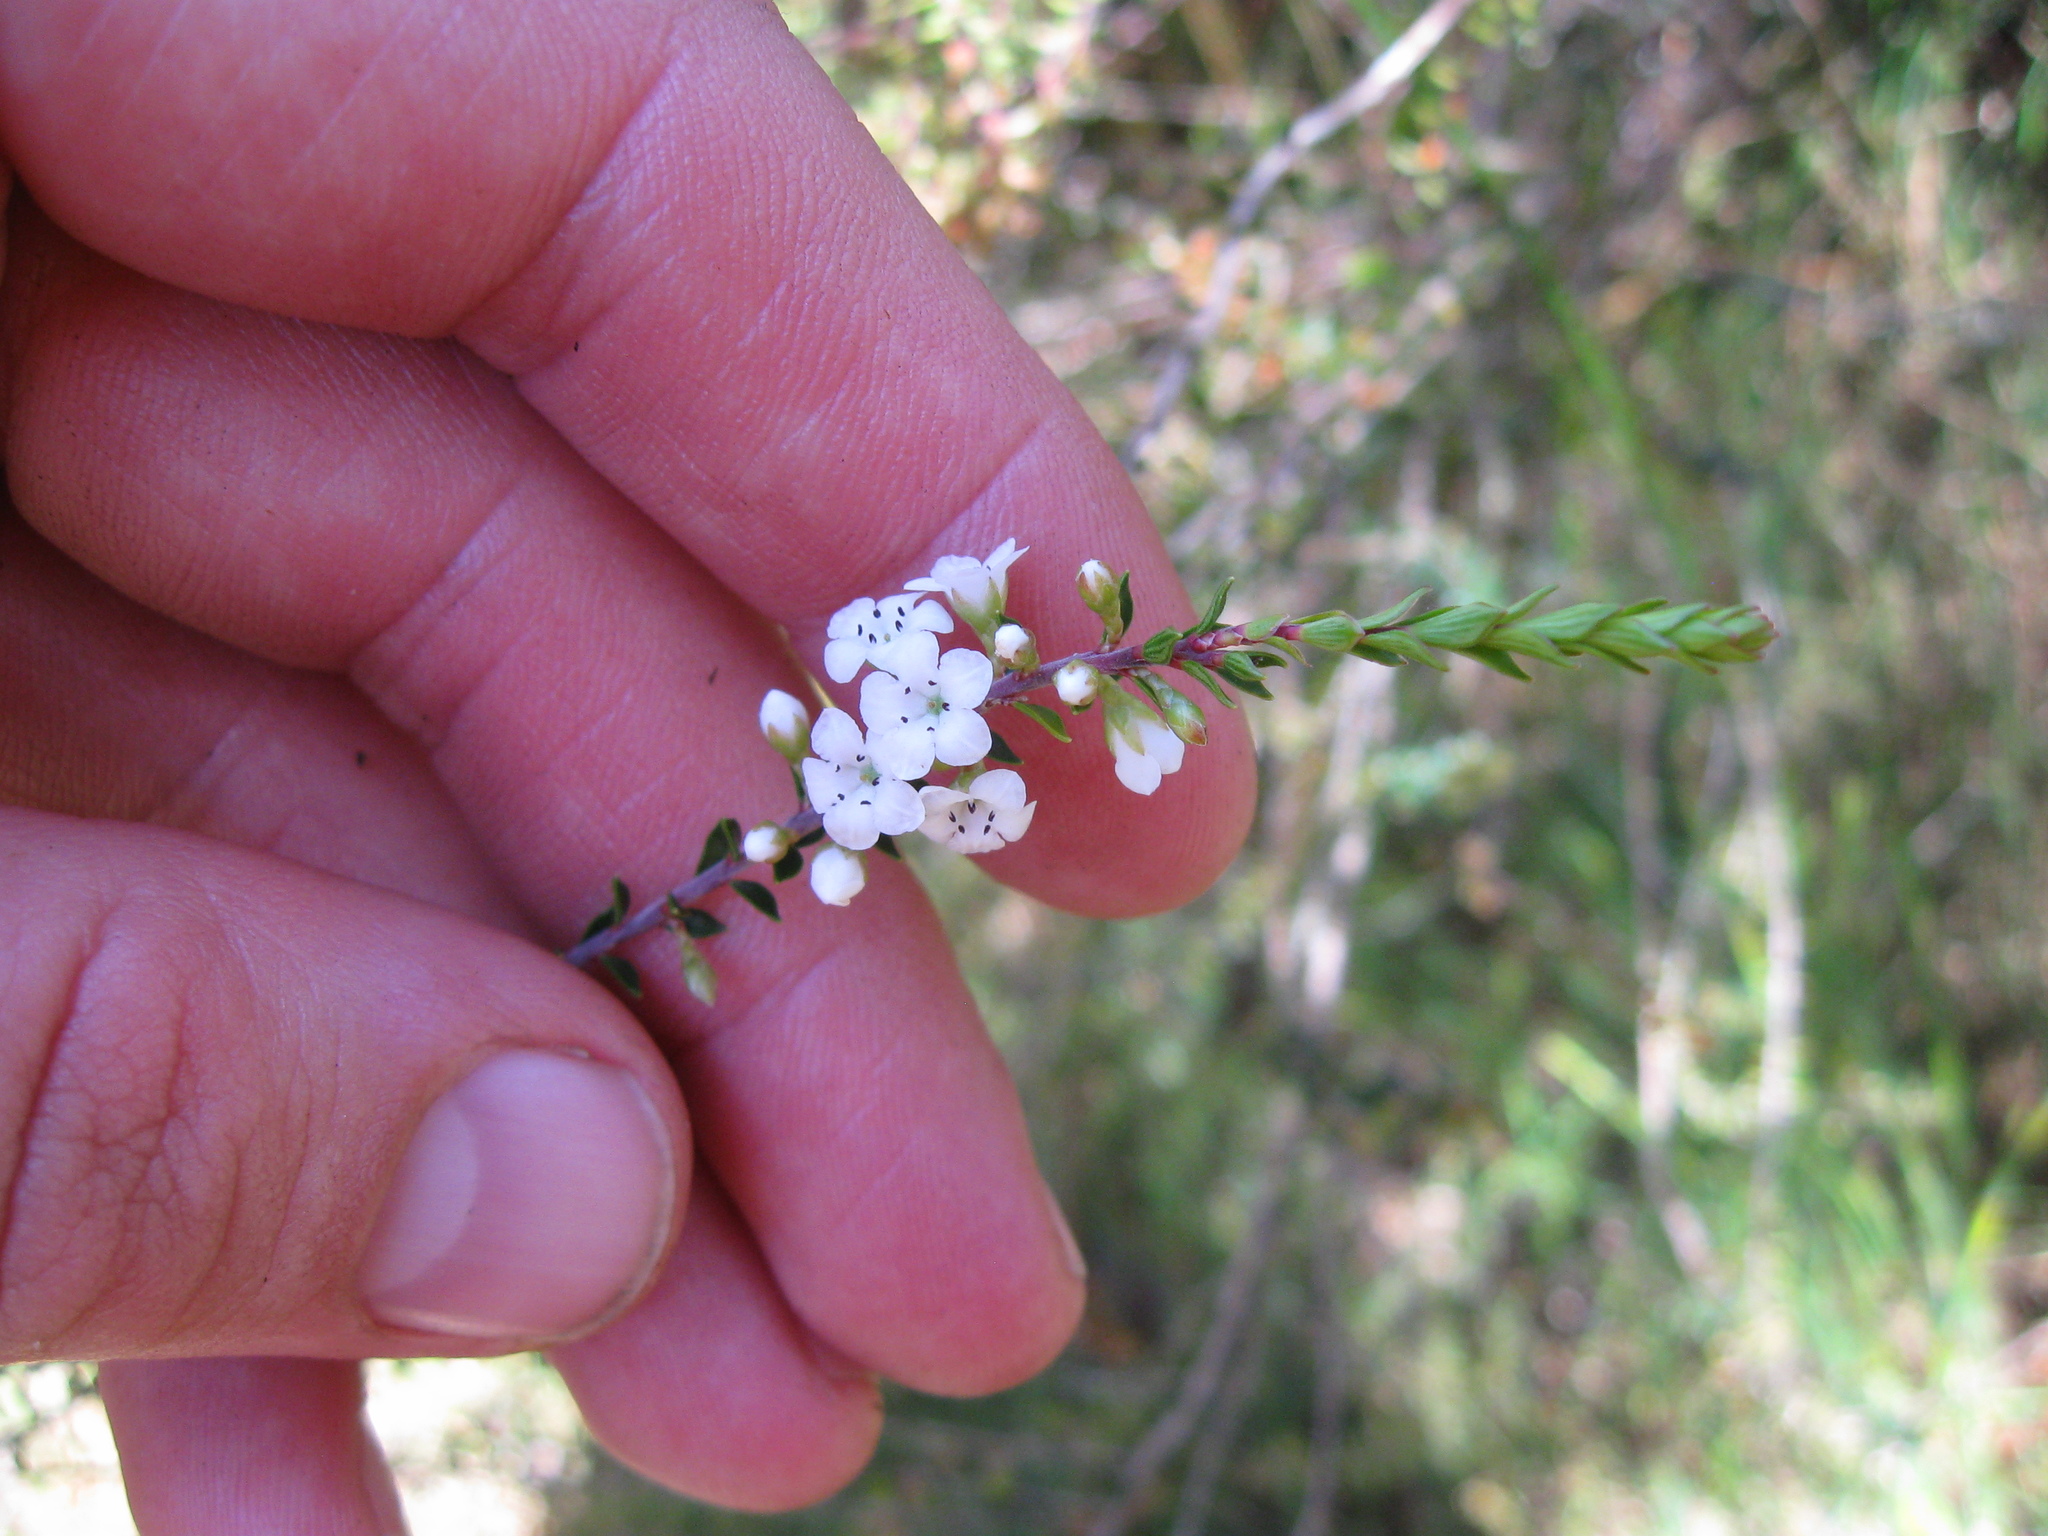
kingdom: Plantae
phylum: Tracheophyta
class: Magnoliopsida
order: Ericales
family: Ericaceae
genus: Epacris
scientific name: Epacris pauciflora
